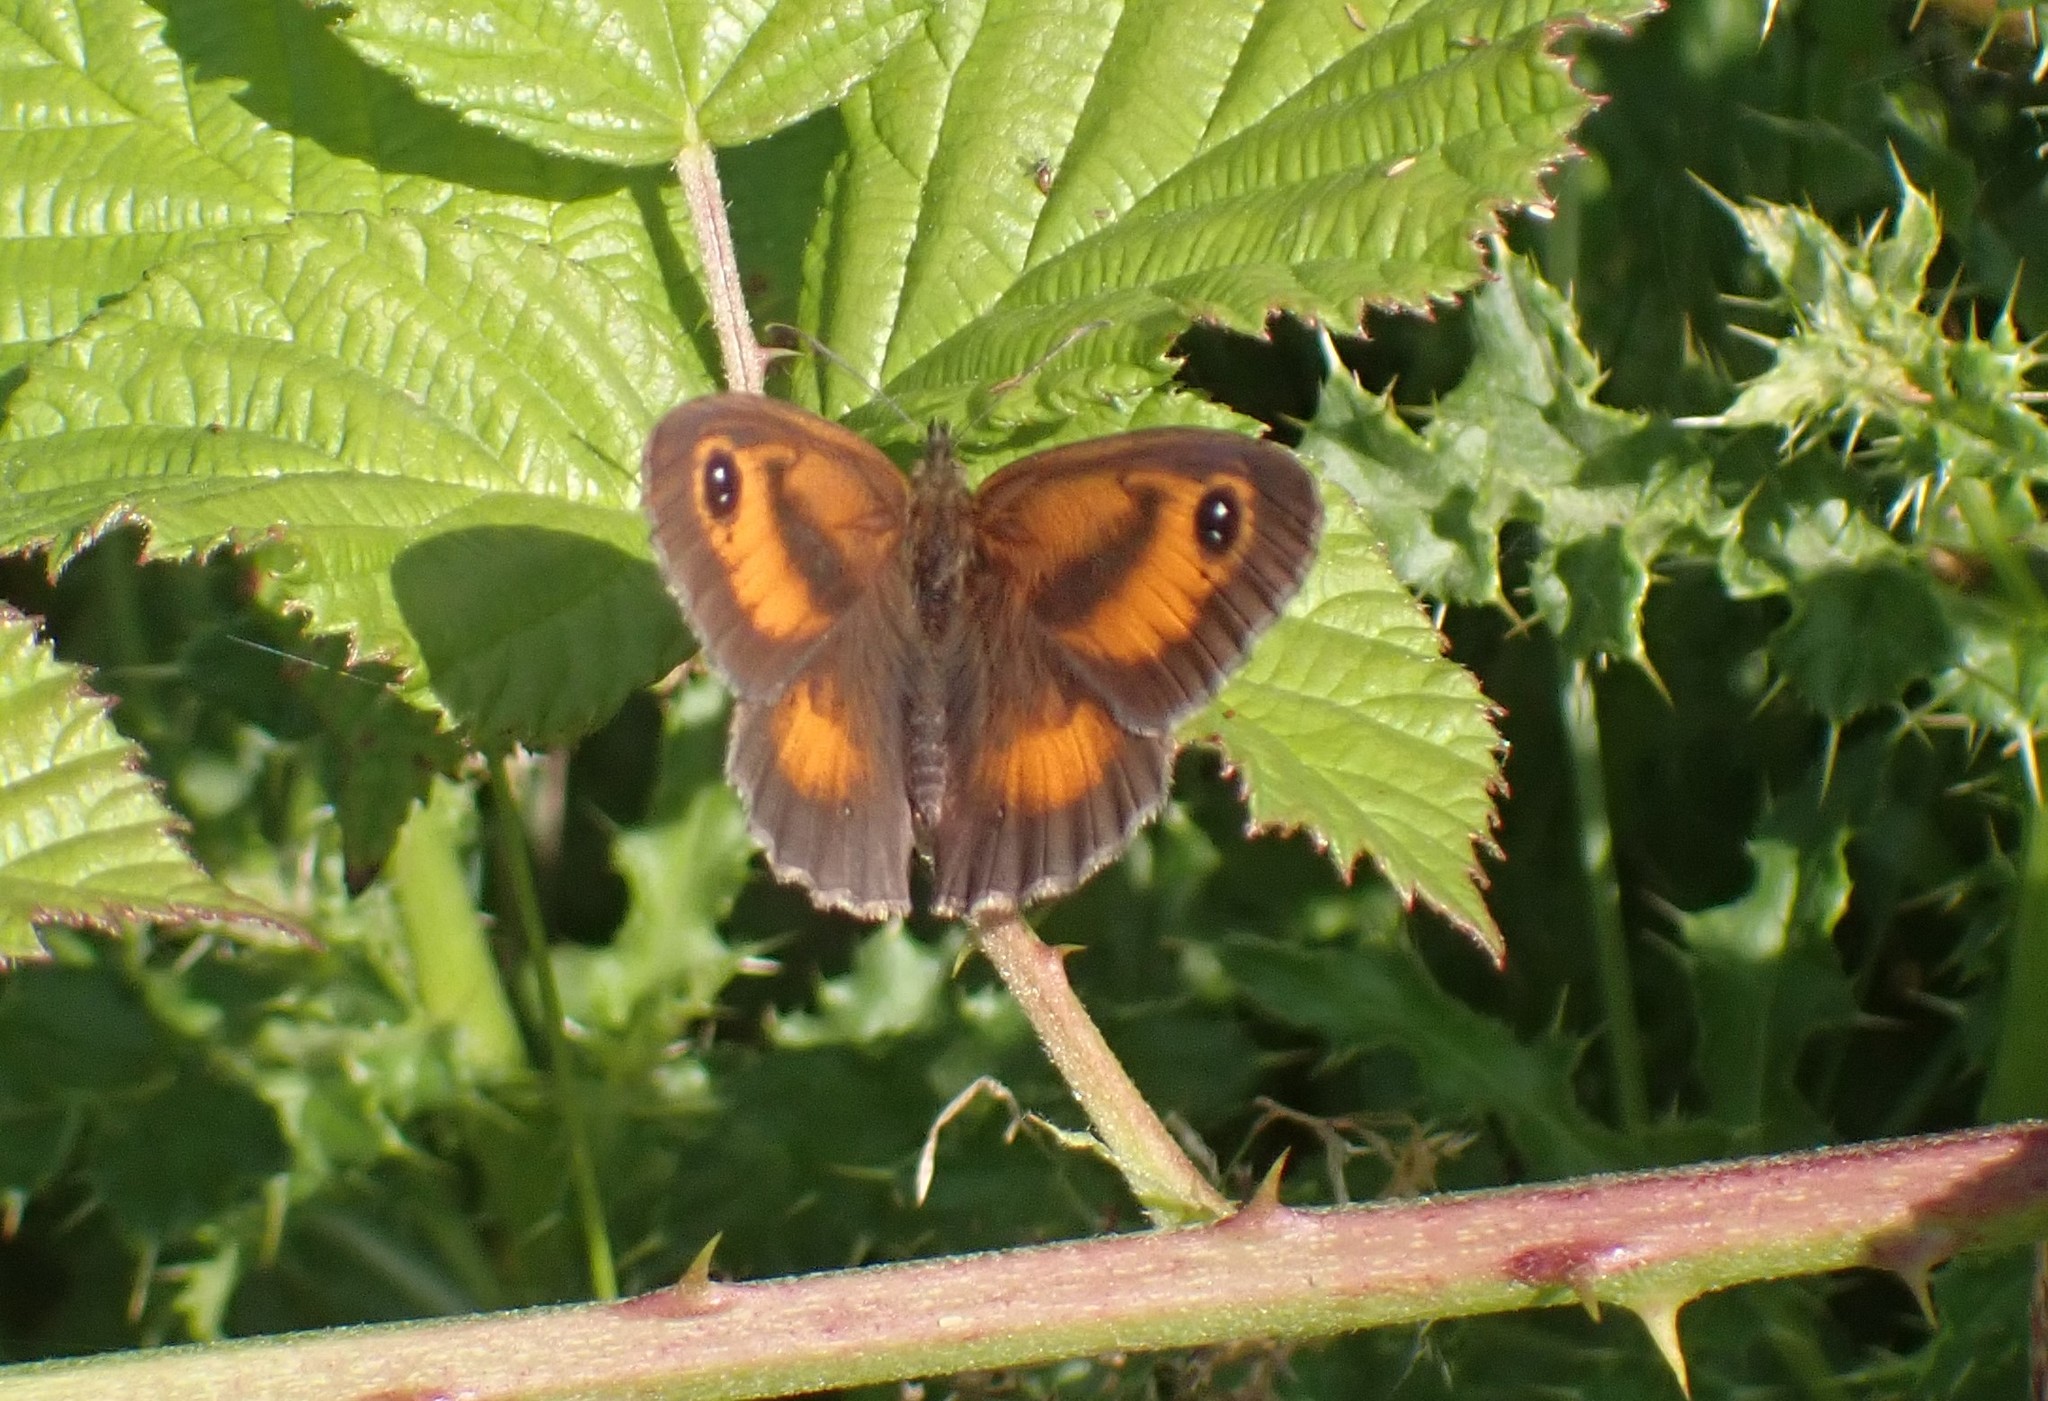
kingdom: Animalia
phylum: Arthropoda
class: Insecta
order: Lepidoptera
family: Nymphalidae
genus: Pyronia
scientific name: Pyronia tithonus
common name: Gatekeeper
